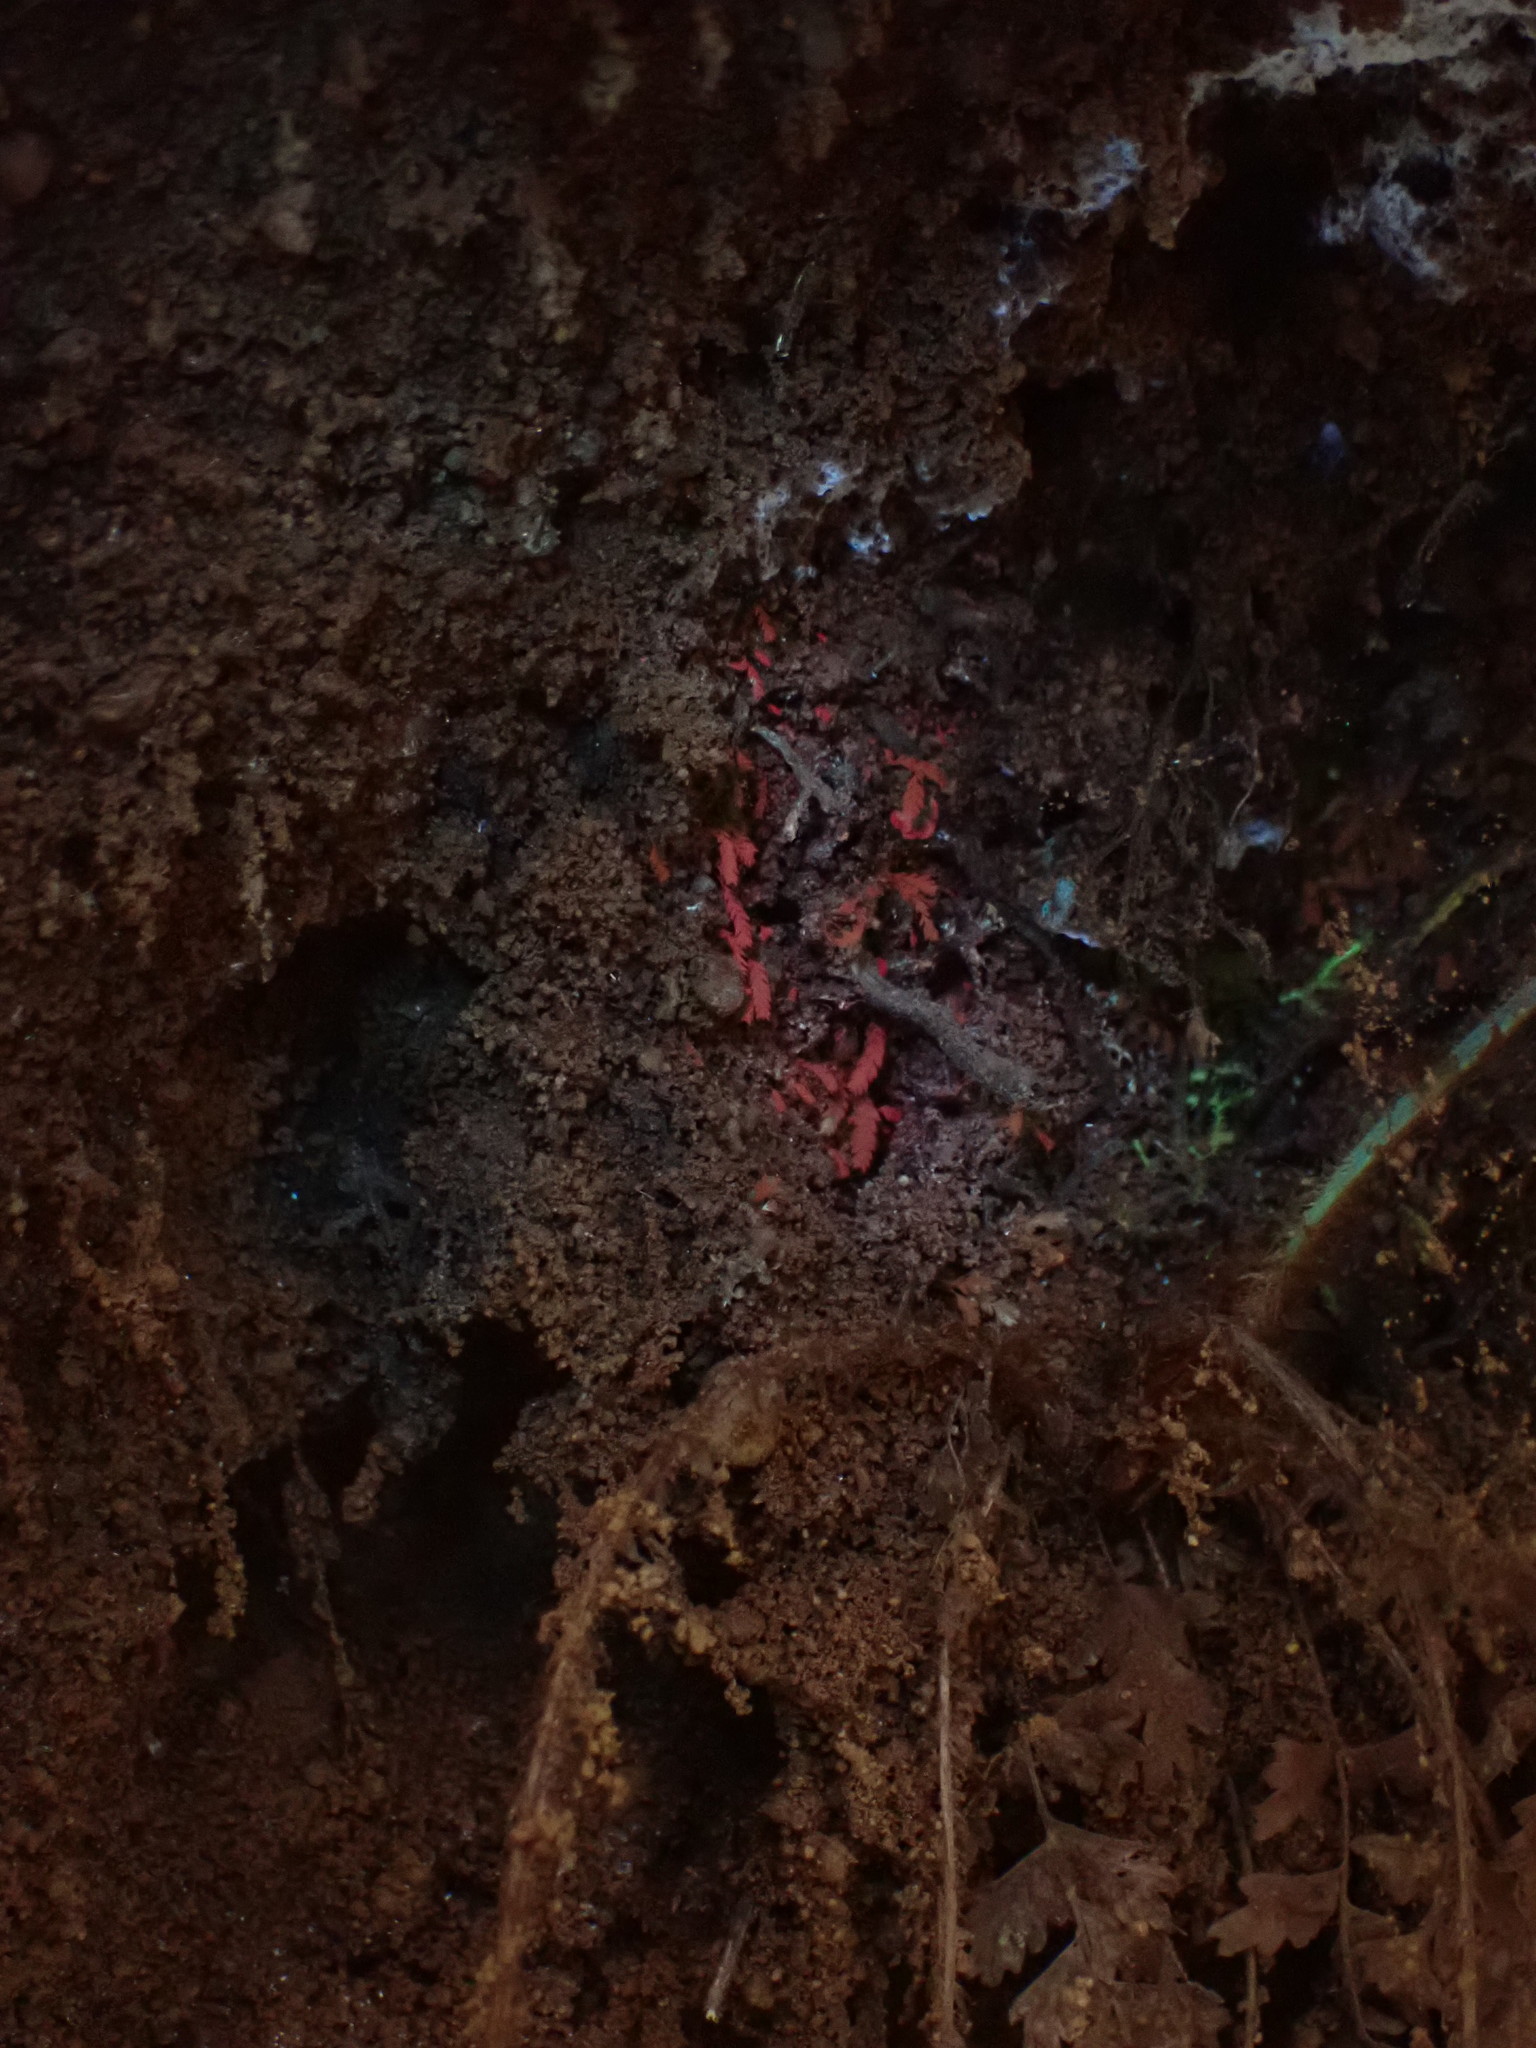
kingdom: Plantae
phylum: Bryophyta
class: Bryopsida
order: Dicranales
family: Schistostegaceae
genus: Schistostega
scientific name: Schistostega pennata
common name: Luminous moss
